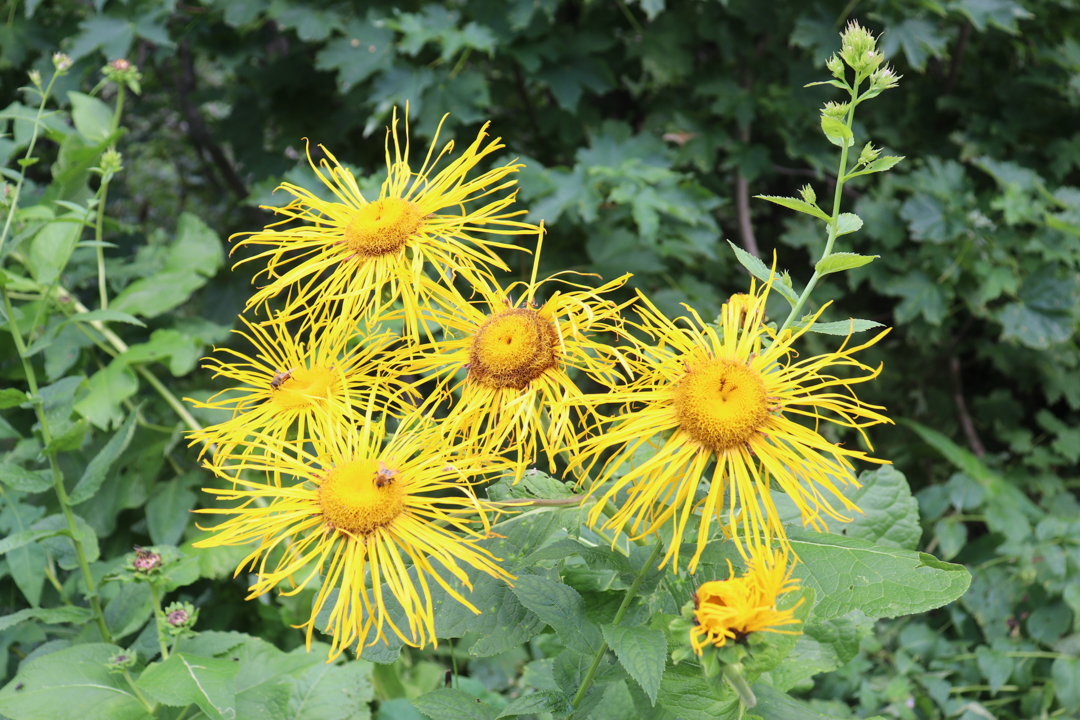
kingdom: Plantae
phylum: Tracheophyta
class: Magnoliopsida
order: Asterales
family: Asteraceae
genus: Telekia
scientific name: Telekia speciosa
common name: Yellow oxeye
